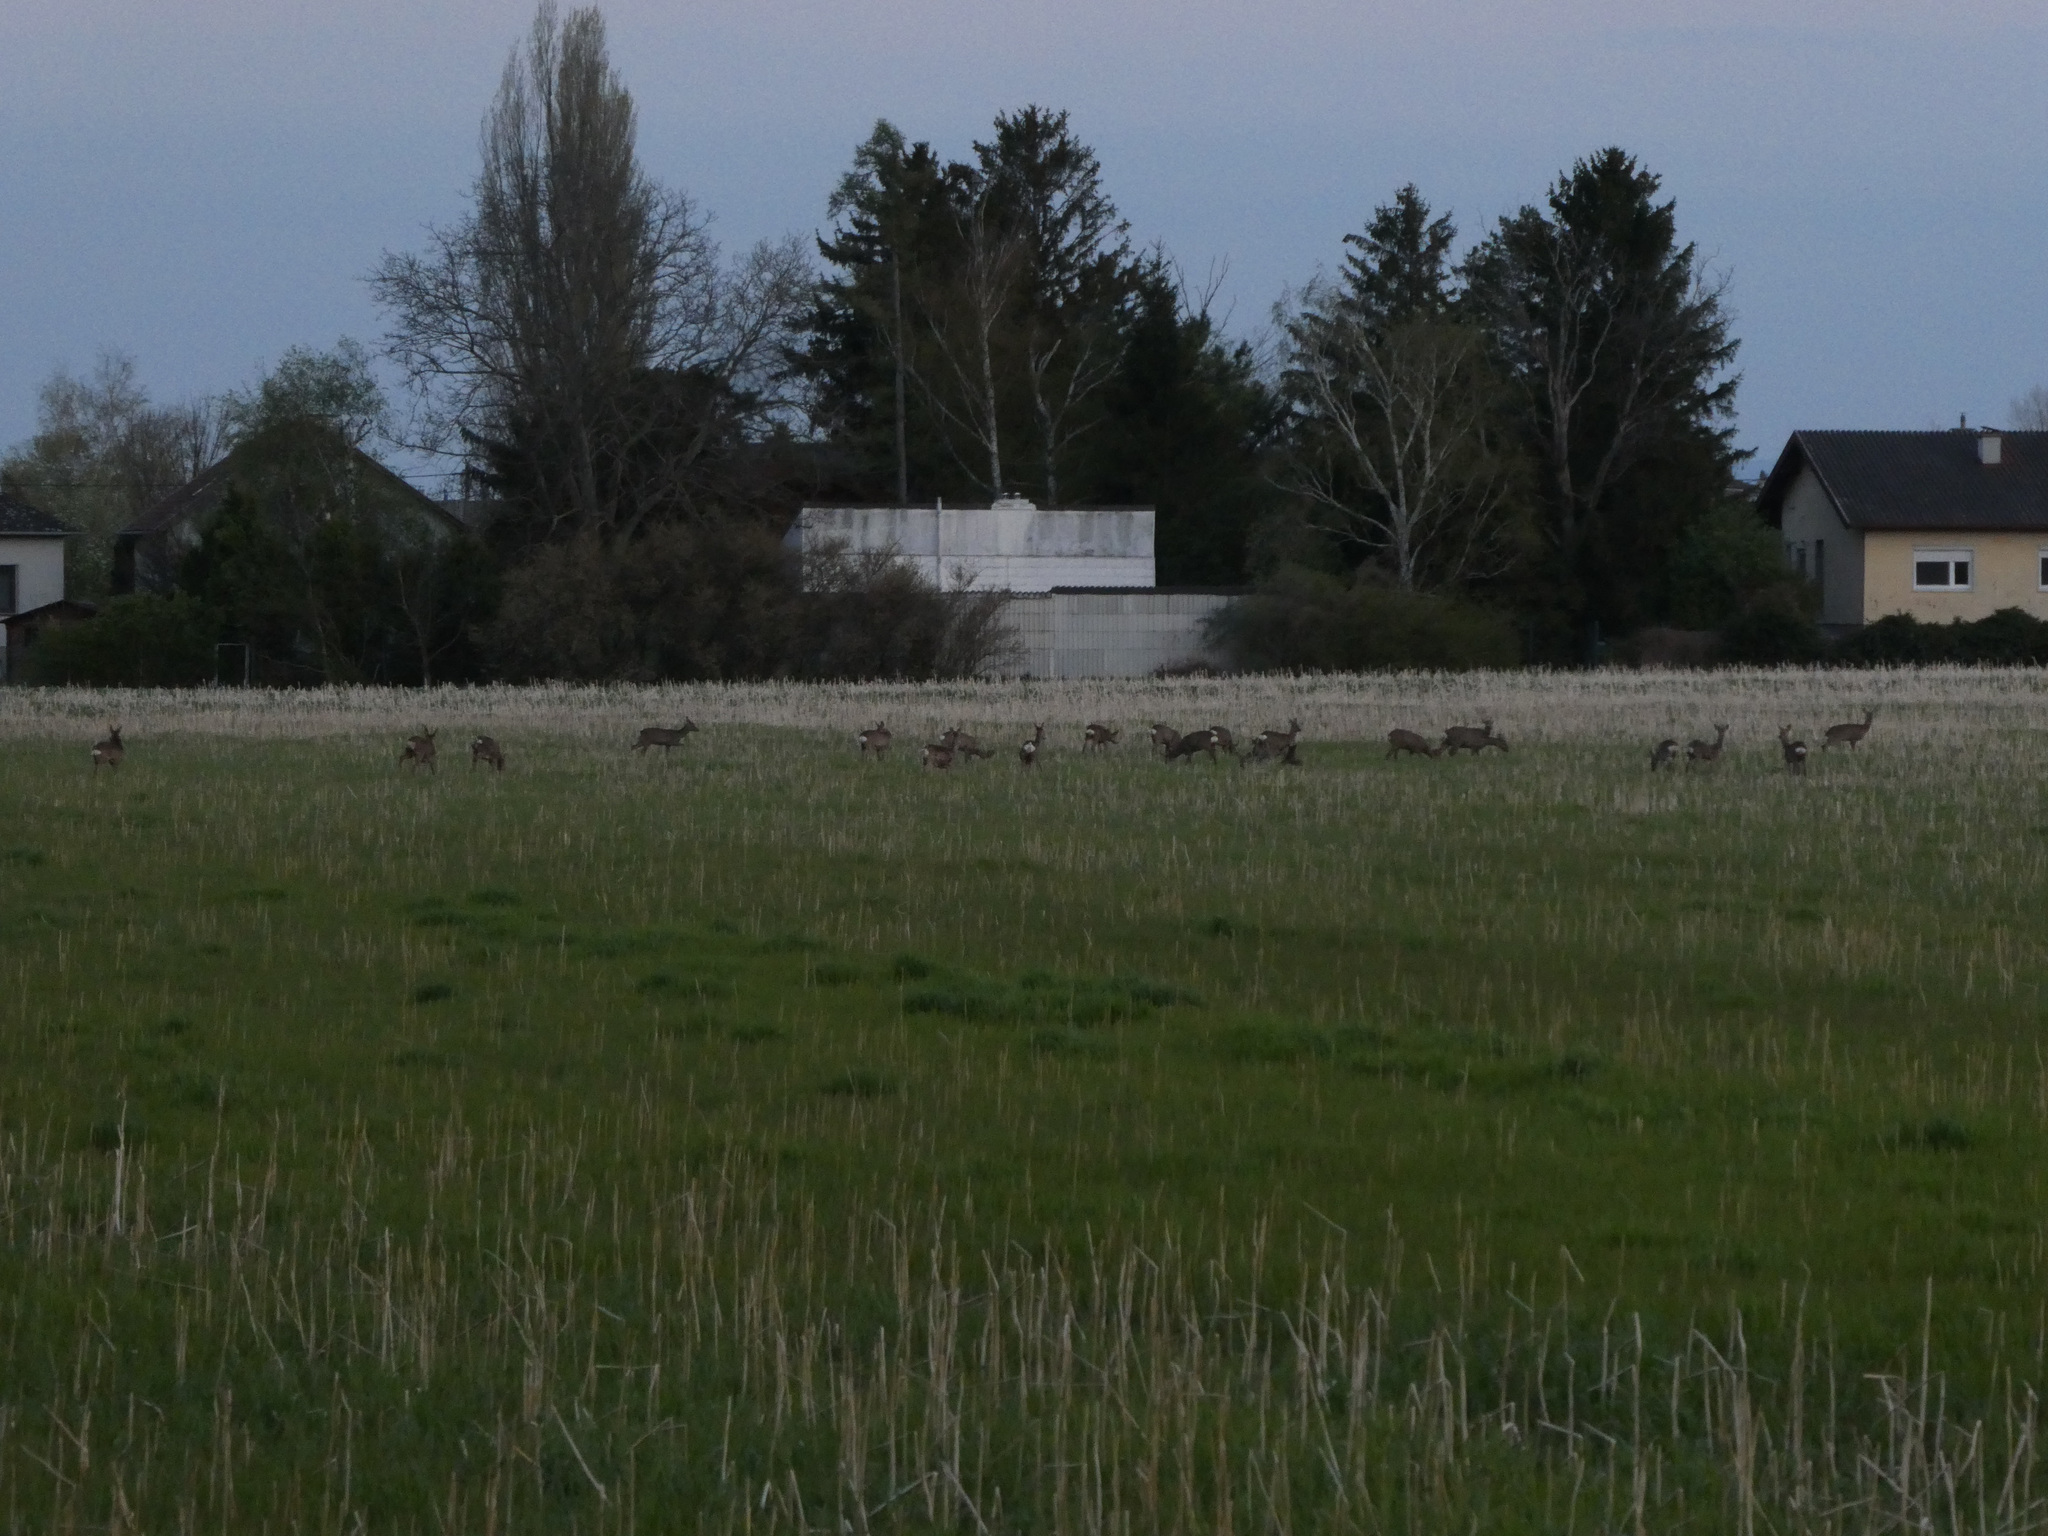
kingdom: Animalia
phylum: Chordata
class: Mammalia
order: Artiodactyla
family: Cervidae
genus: Capreolus
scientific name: Capreolus capreolus
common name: Western roe deer
